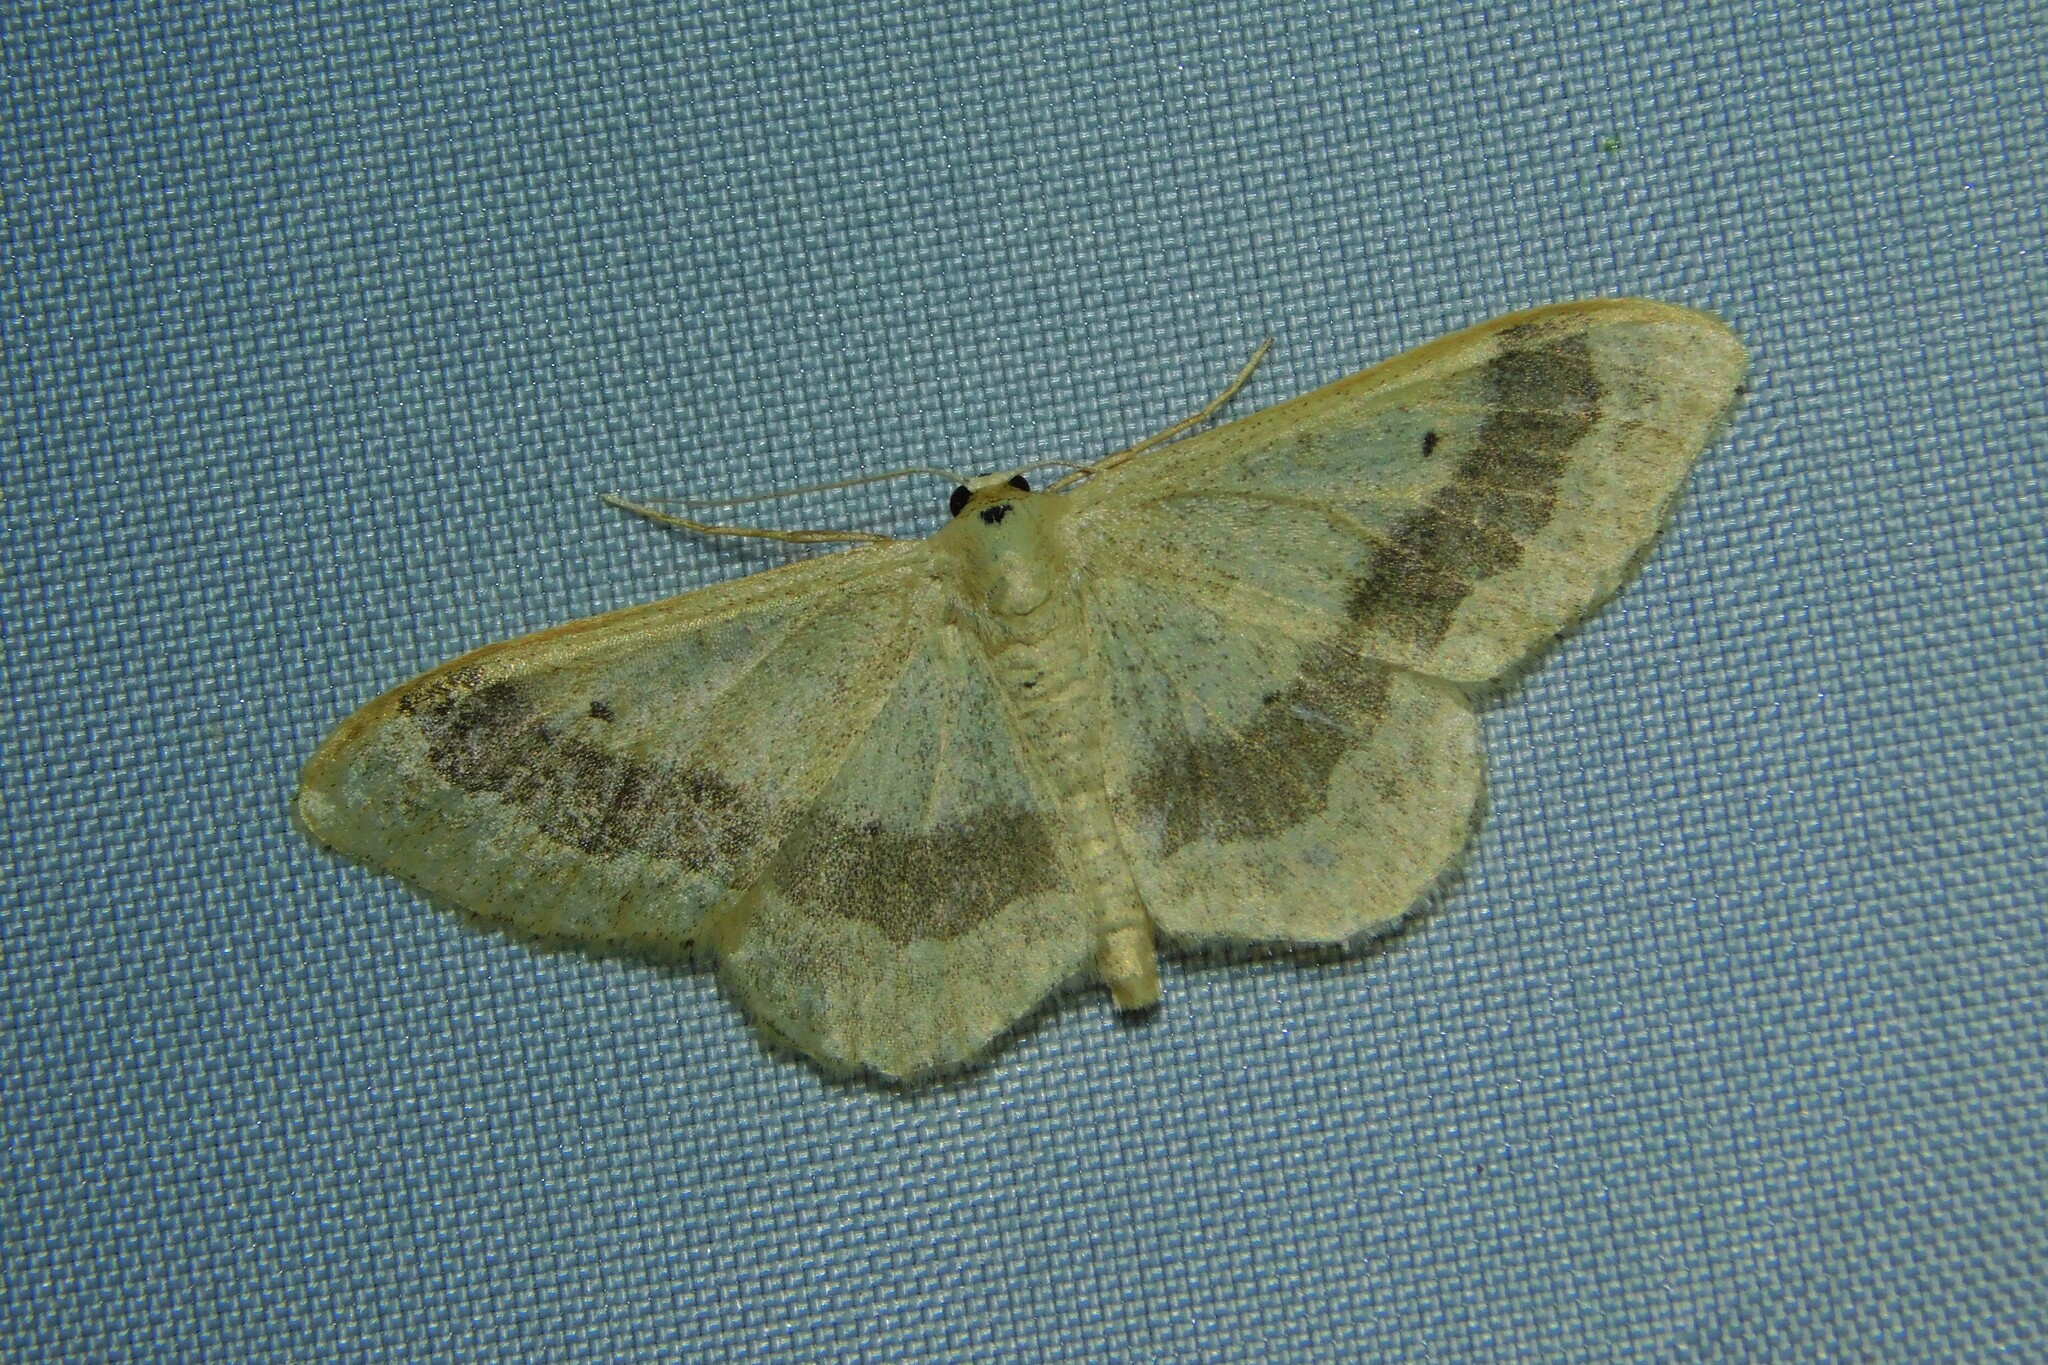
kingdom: Animalia
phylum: Arthropoda
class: Insecta
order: Lepidoptera
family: Geometridae
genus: Idaea
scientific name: Idaea aversata
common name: Riband wave
